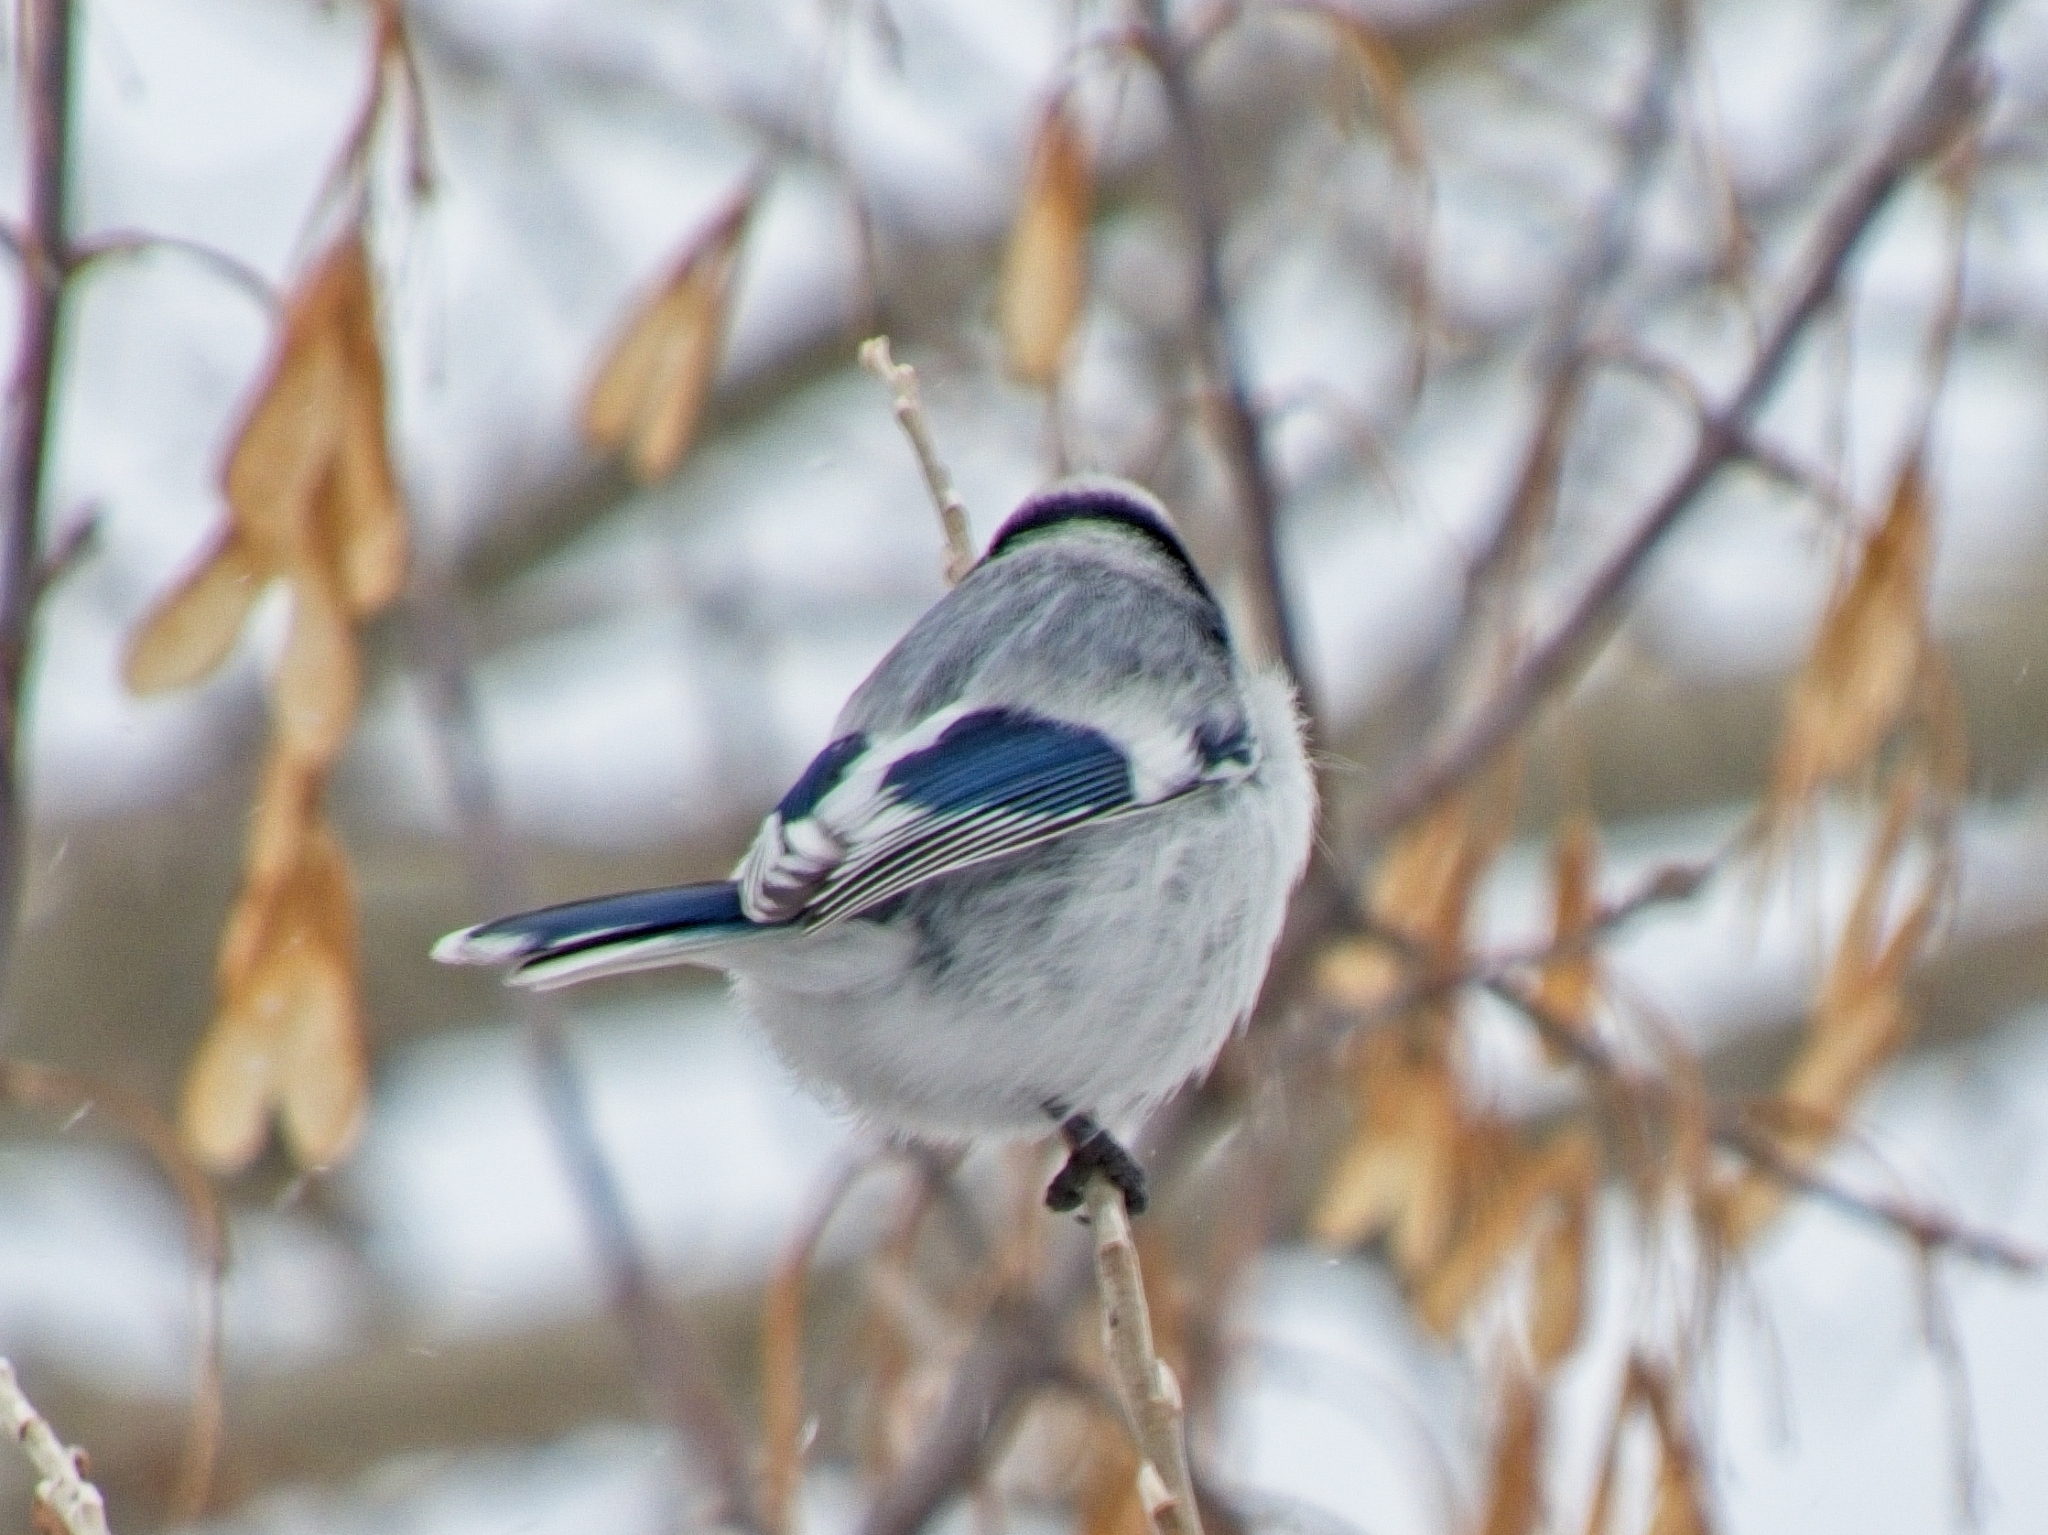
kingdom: Animalia
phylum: Chordata
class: Aves
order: Passeriformes
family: Paridae
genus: Cyanistes
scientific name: Cyanistes cyanus
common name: Azure tit
